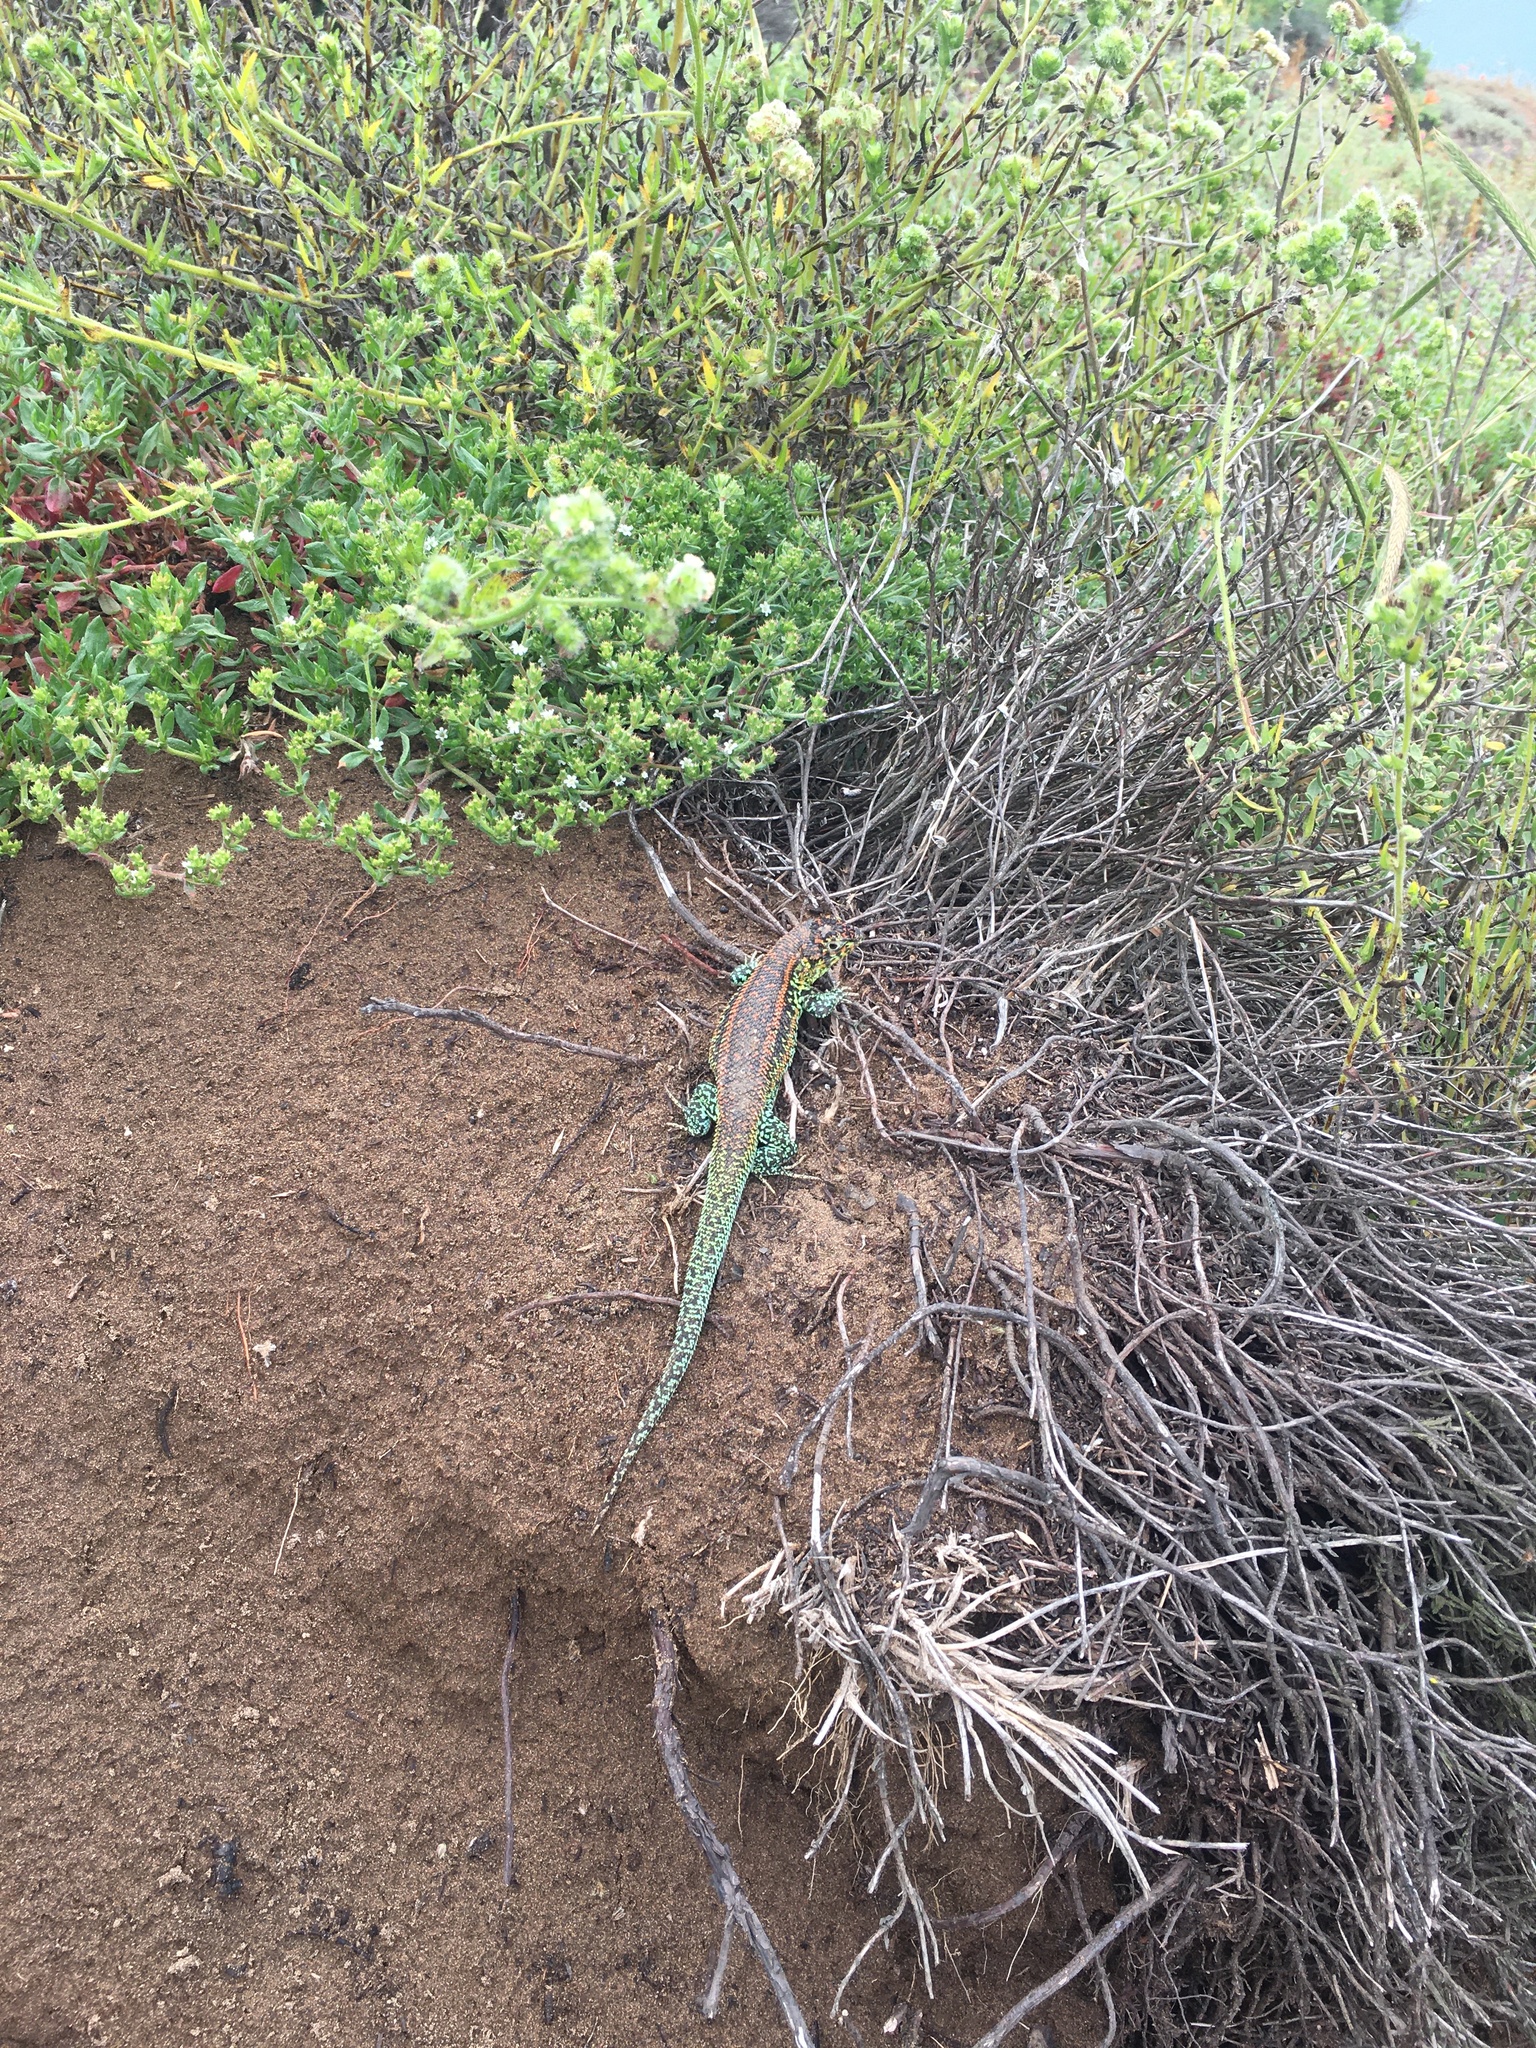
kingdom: Animalia
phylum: Chordata
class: Squamata
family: Liolaemidae
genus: Liolaemus
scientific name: Liolaemus zapallarensis
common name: Zapallaren tree iguana
